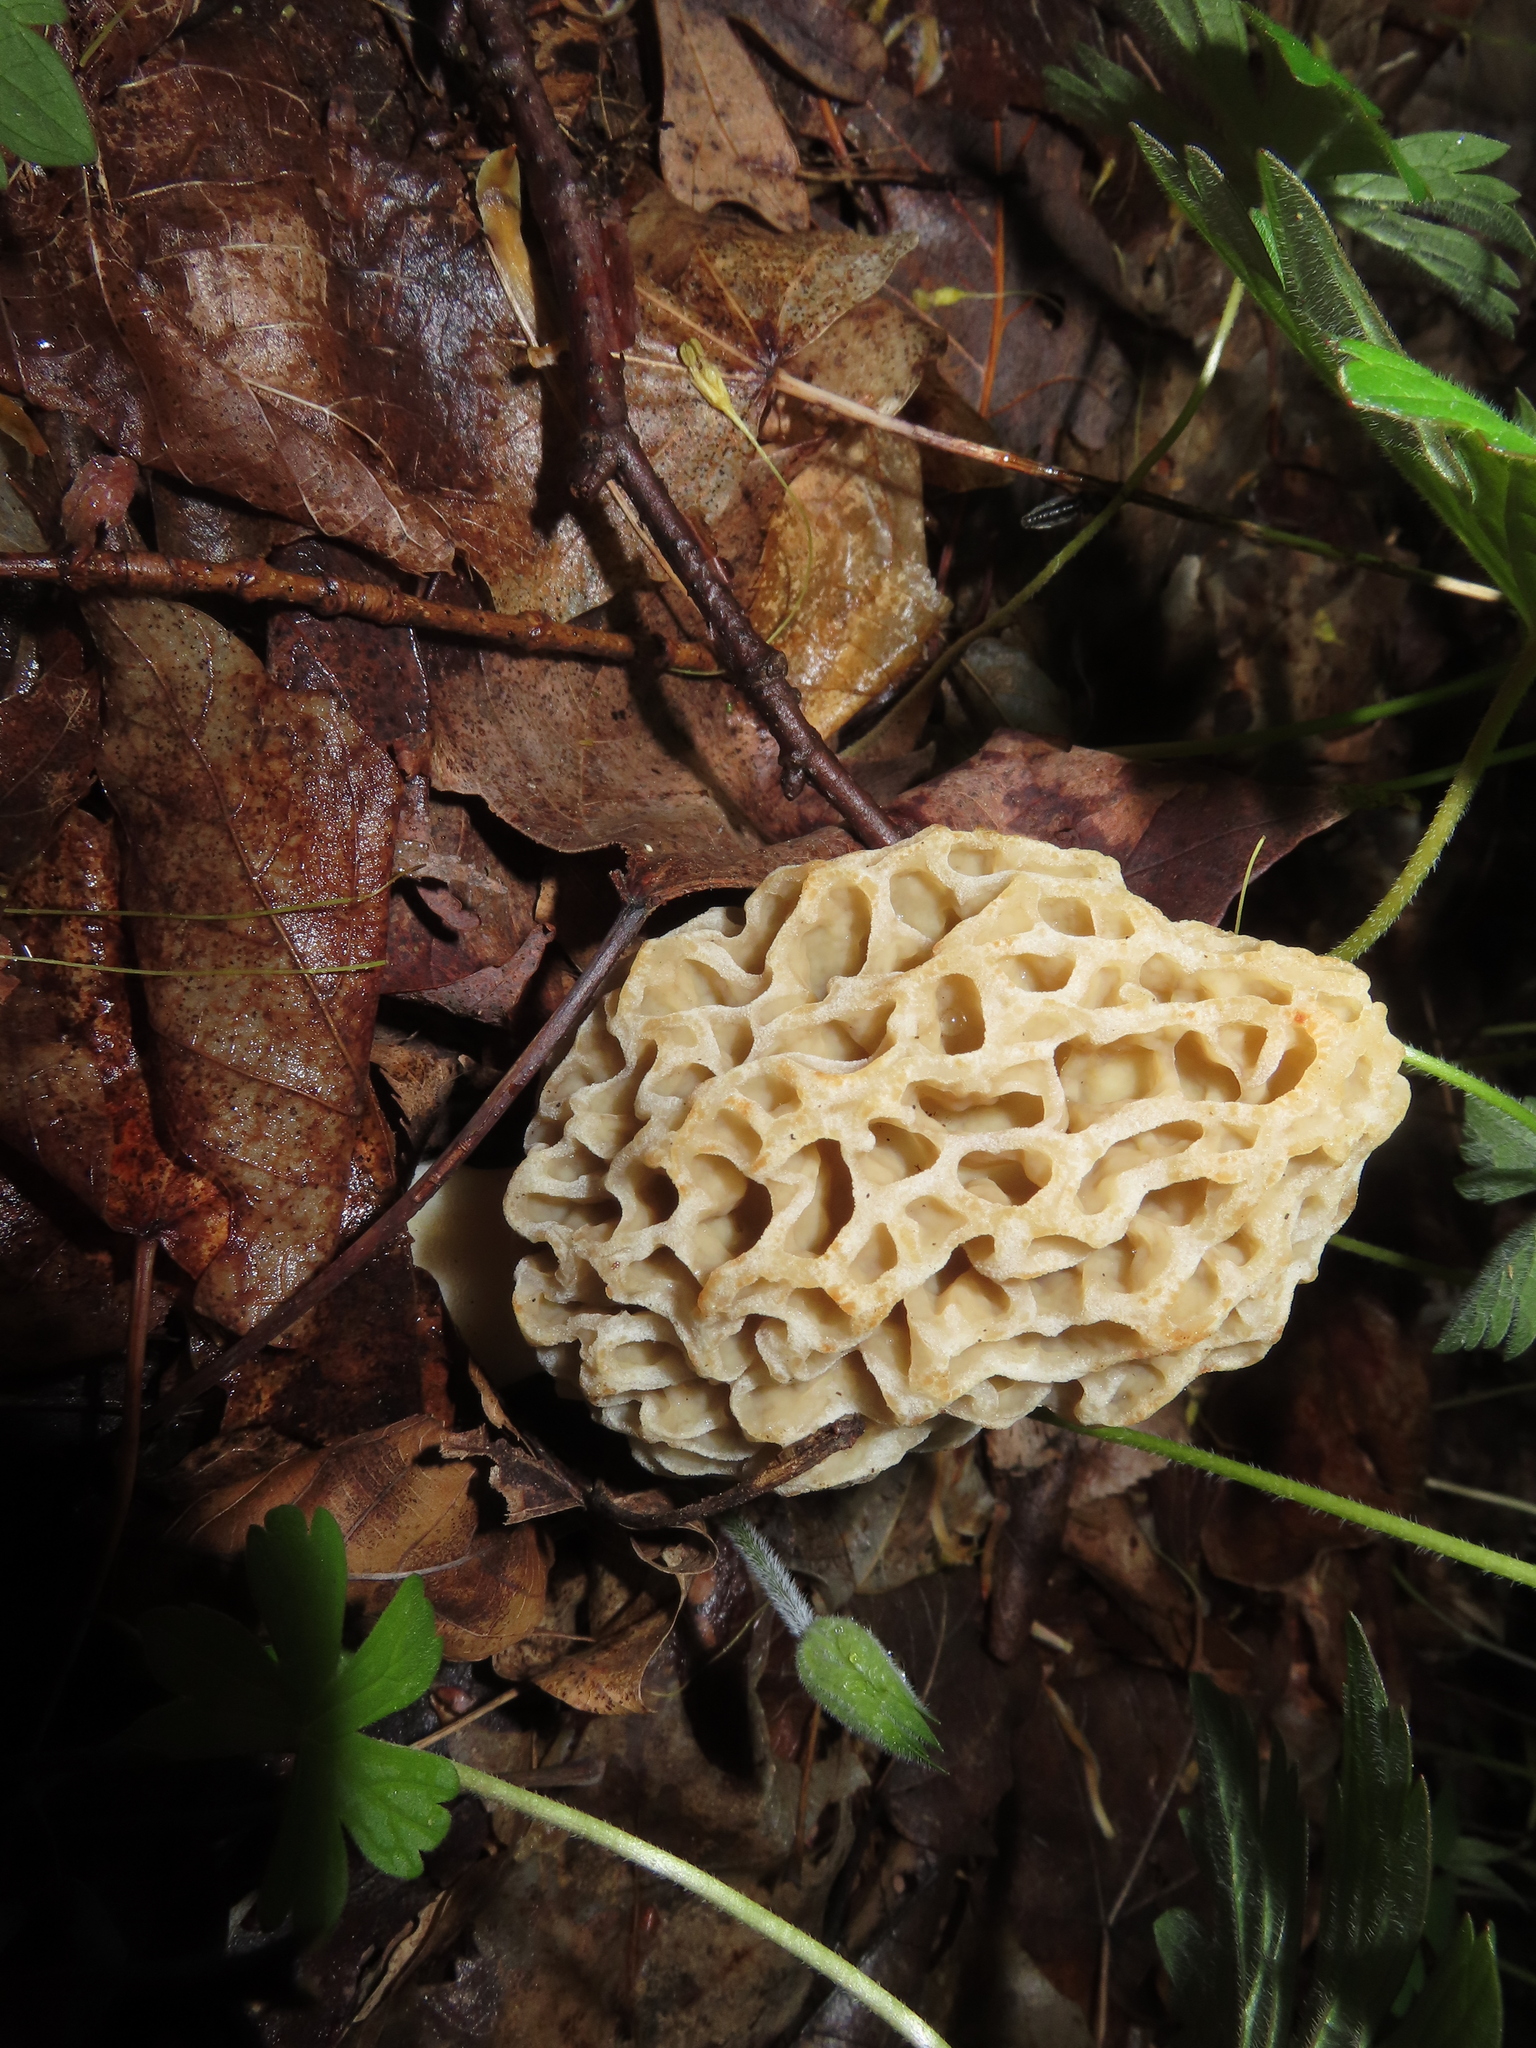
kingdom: Fungi
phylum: Ascomycota
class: Pezizomycetes
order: Pezizales
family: Morchellaceae
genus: Morchella
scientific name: Morchella americana
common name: White morel
